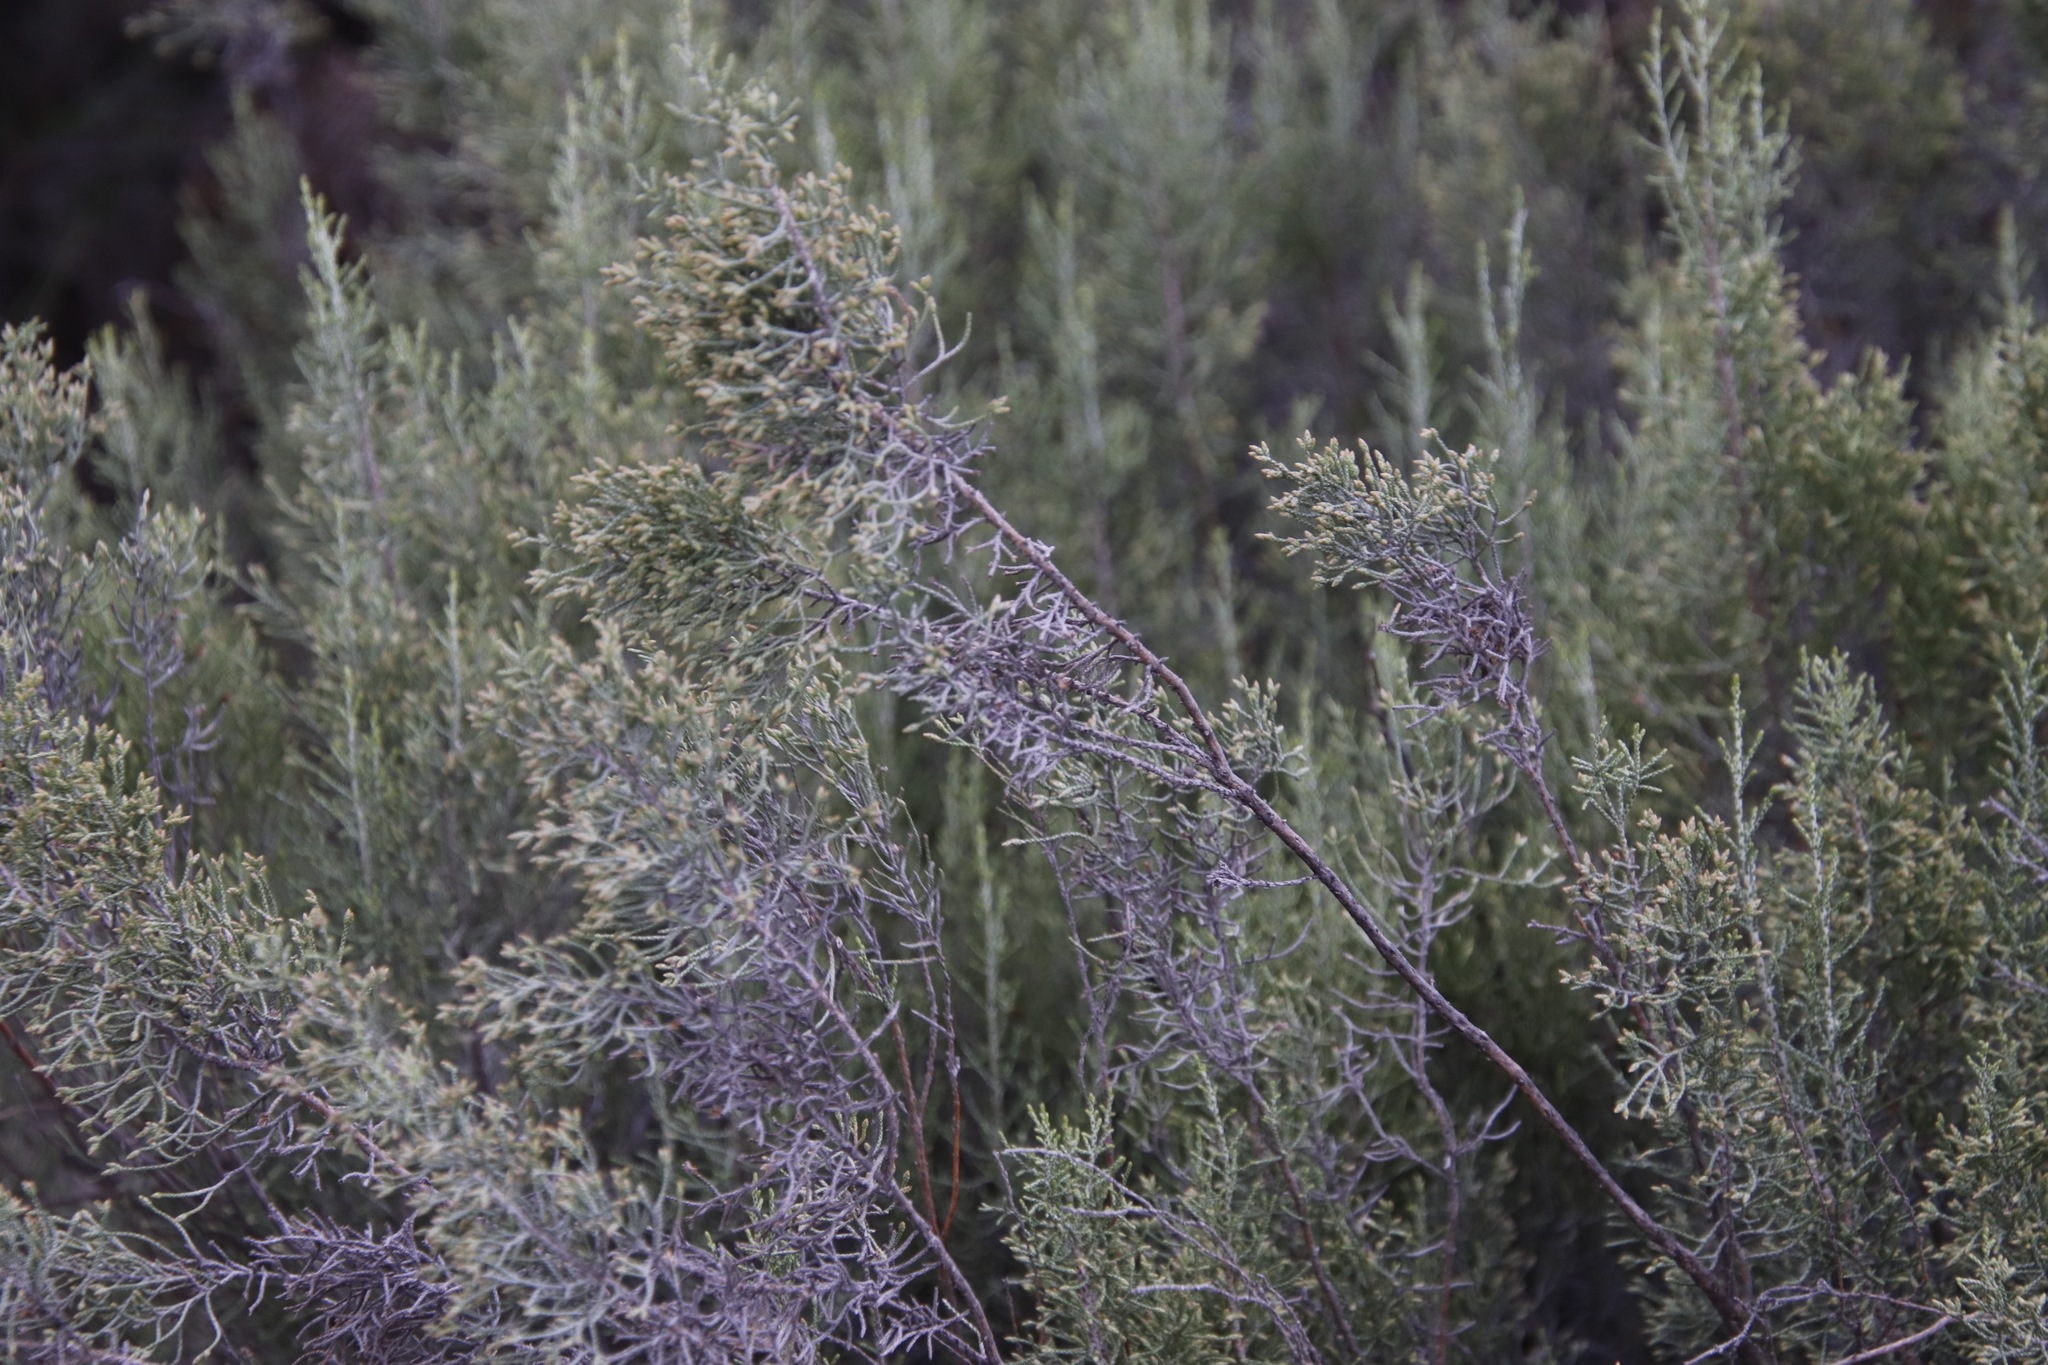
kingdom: Plantae
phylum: Tracheophyta
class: Magnoliopsida
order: Asterales
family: Asteraceae
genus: Dicerothamnus
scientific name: Dicerothamnus rhinocerotis
